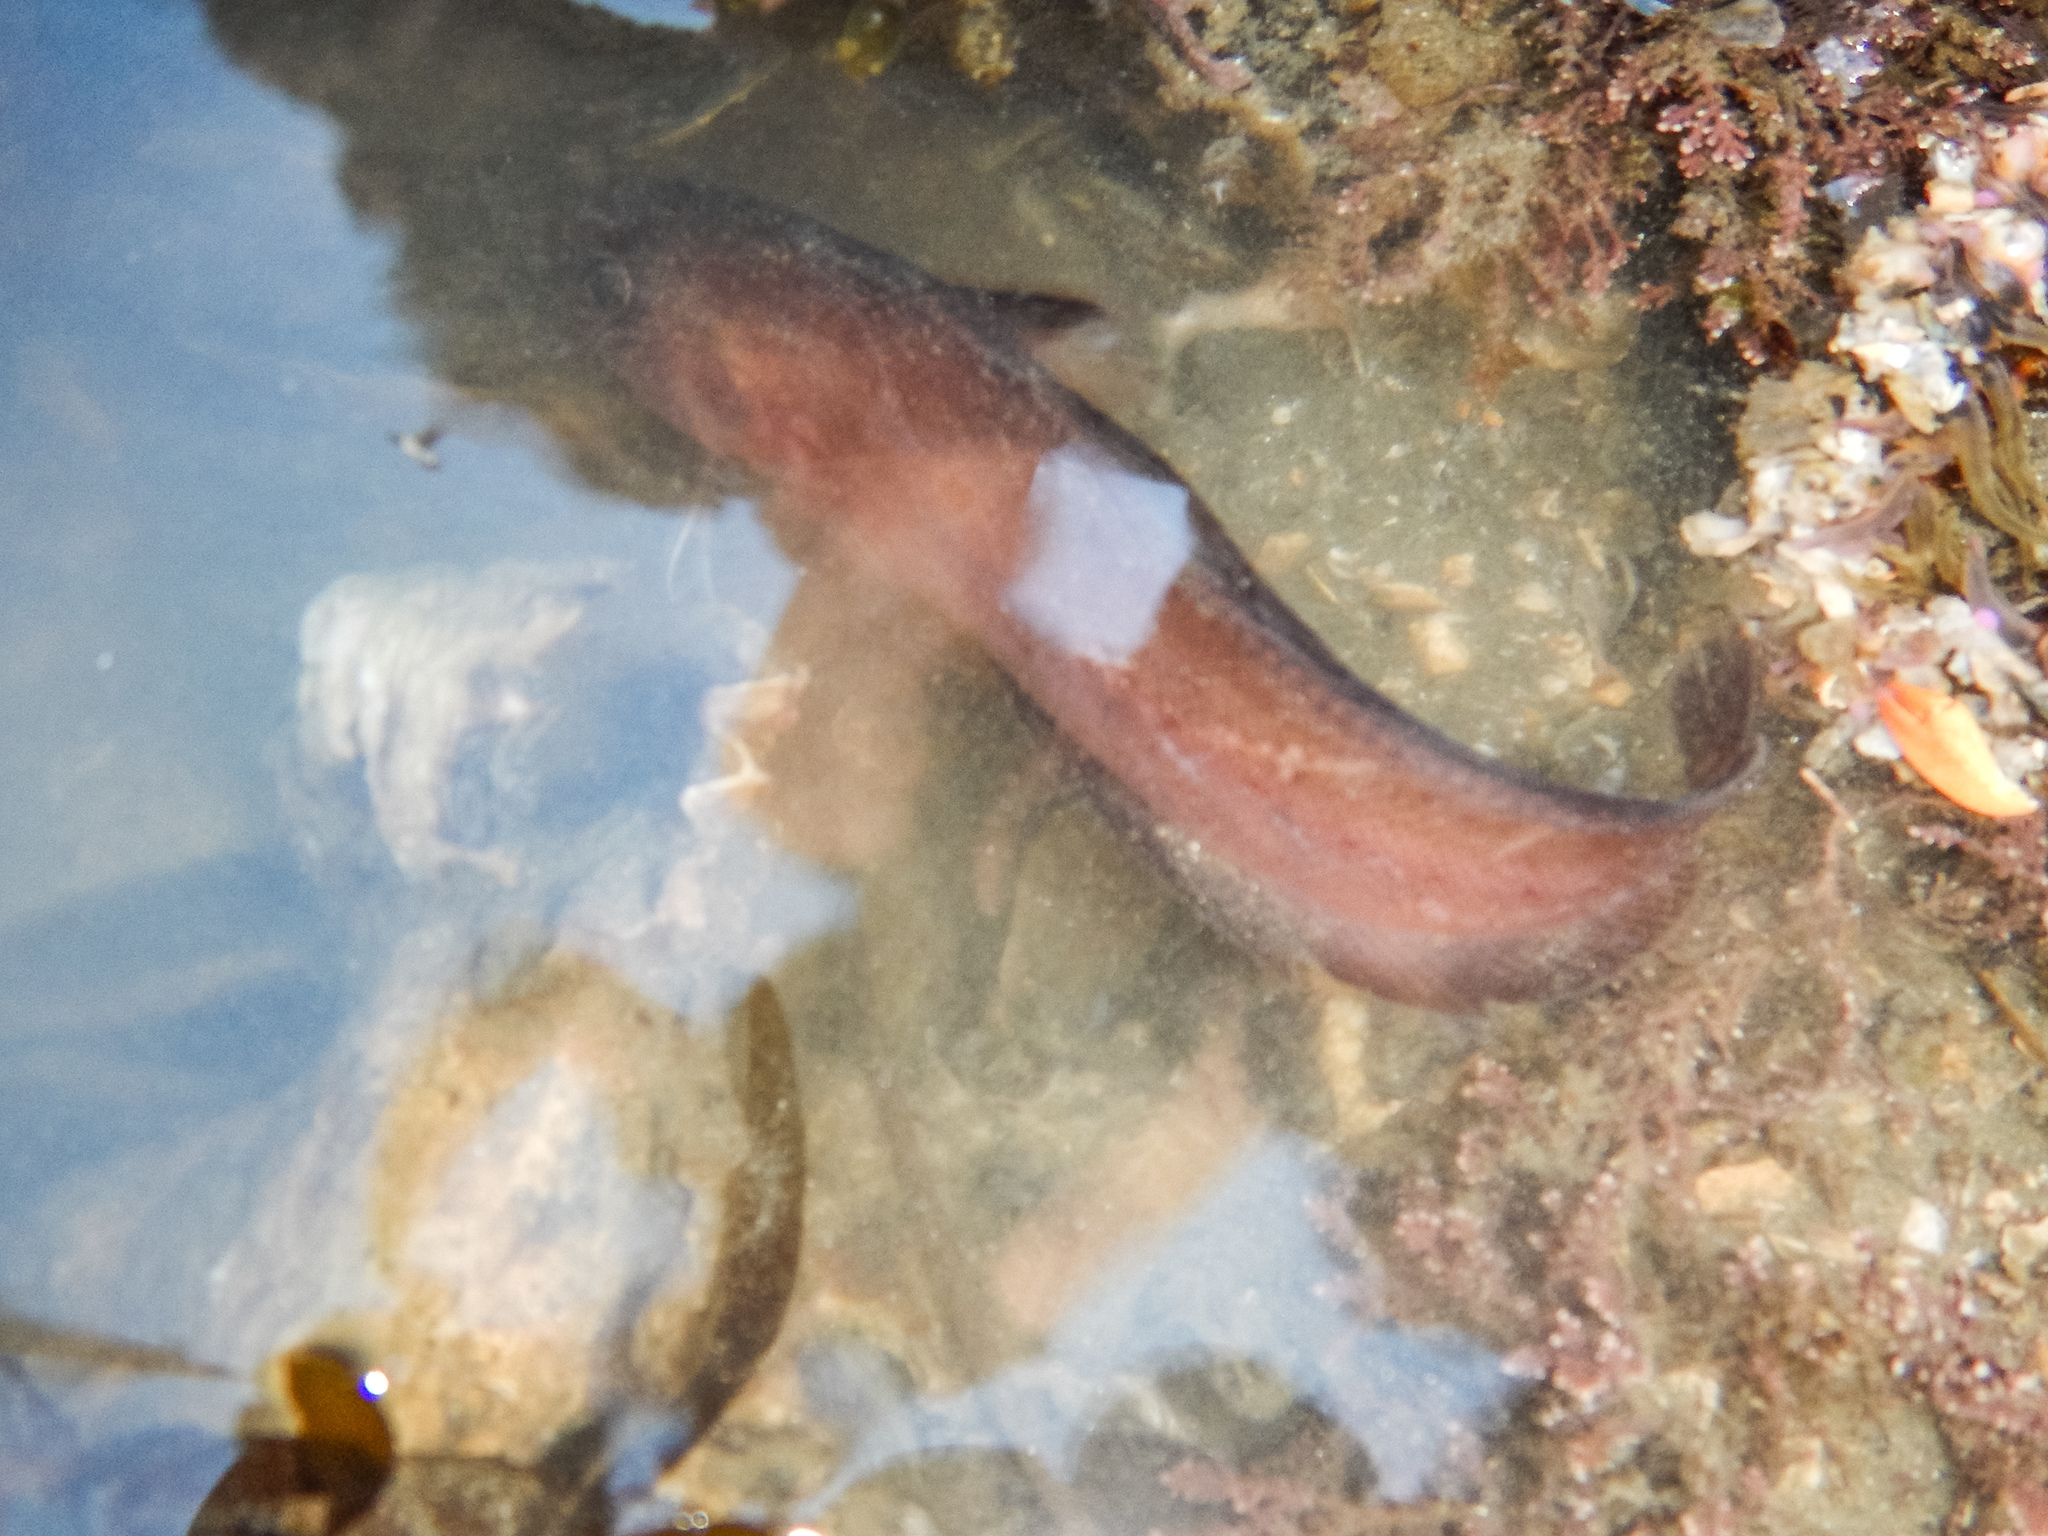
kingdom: Animalia
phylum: Chordata
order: Gadiformes
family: Moridae
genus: Pseudophycis
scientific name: Pseudophycis breviuscula
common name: Northern bastard codling
